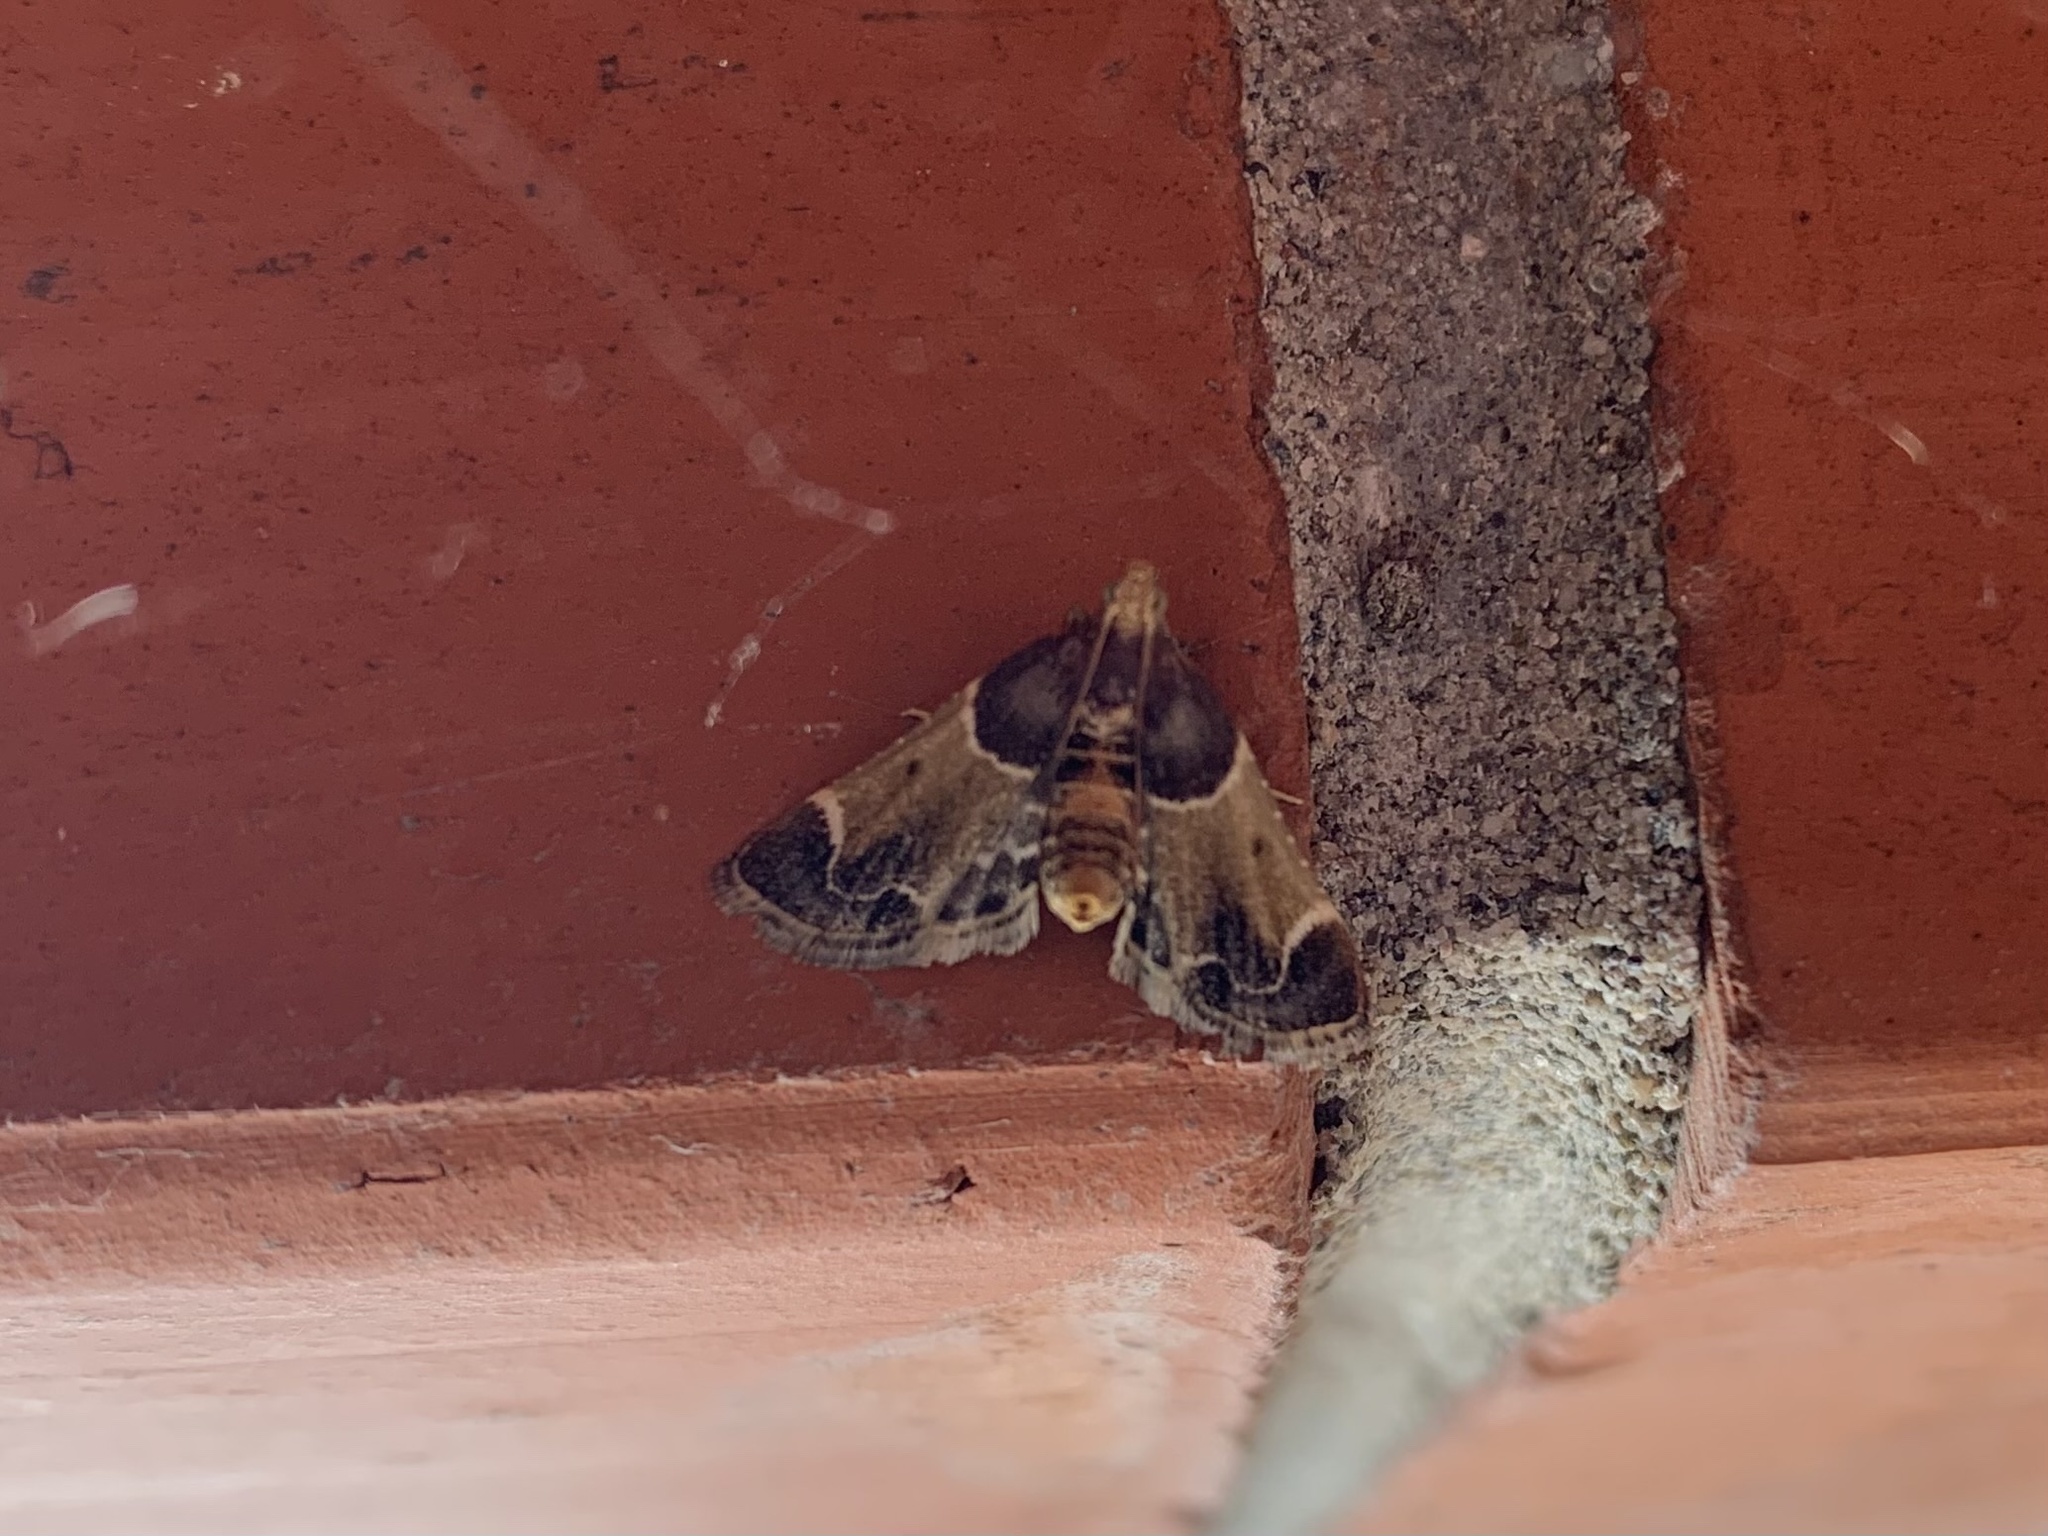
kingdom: Animalia
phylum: Arthropoda
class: Insecta
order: Lepidoptera
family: Pyralidae
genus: Pyralis
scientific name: Pyralis farinalis
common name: Meal moth
